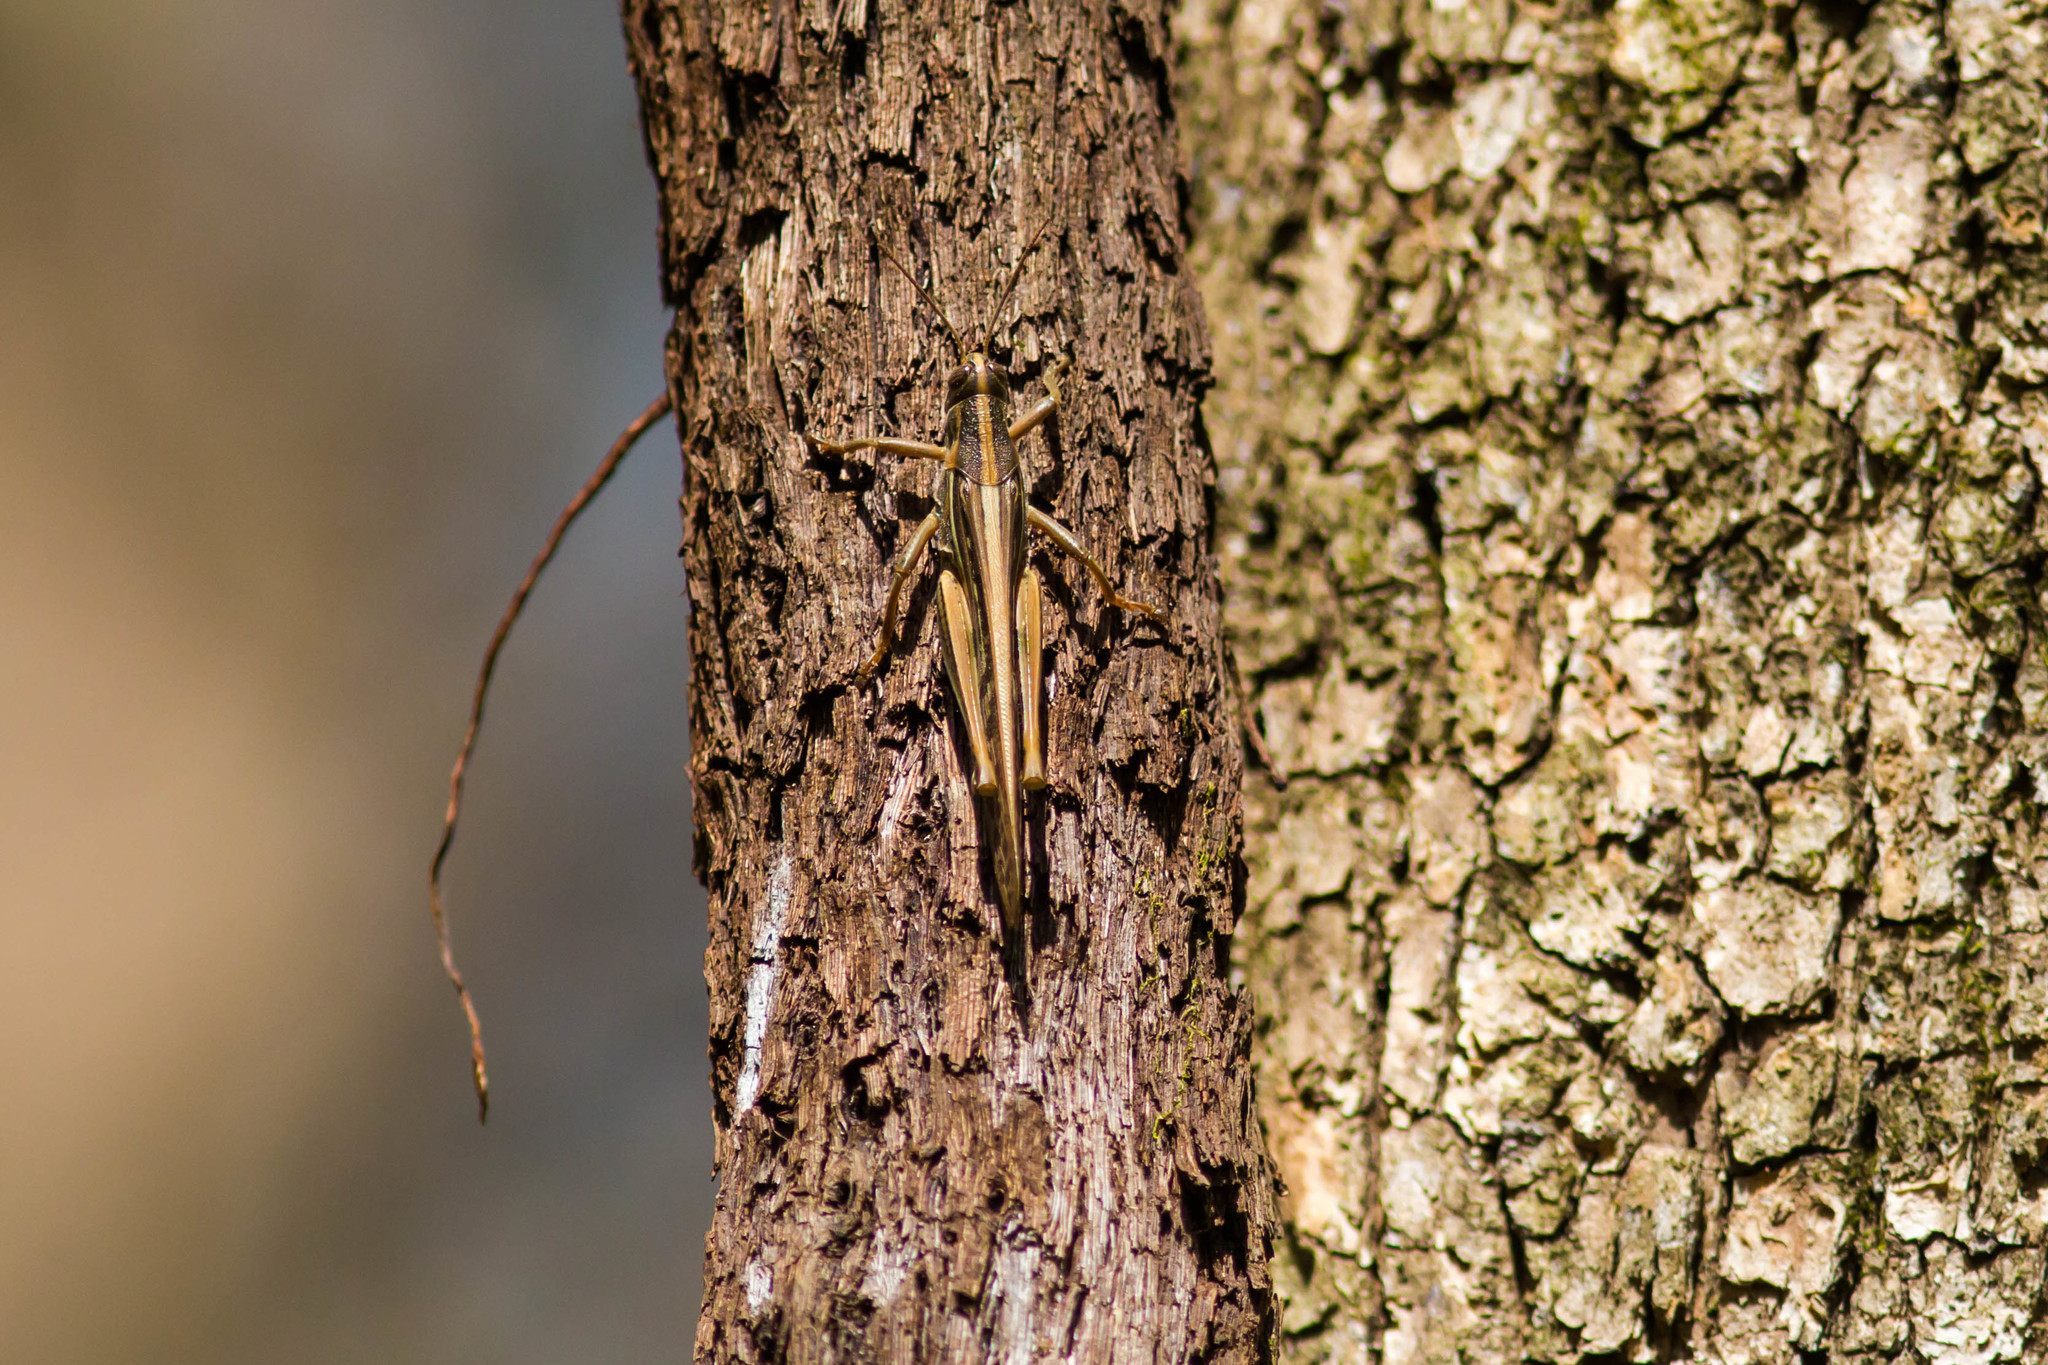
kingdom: Animalia
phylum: Arthropoda
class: Insecta
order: Orthoptera
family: Acrididae
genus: Schistocerca
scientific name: Schistocerca americana
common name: American bird locust
